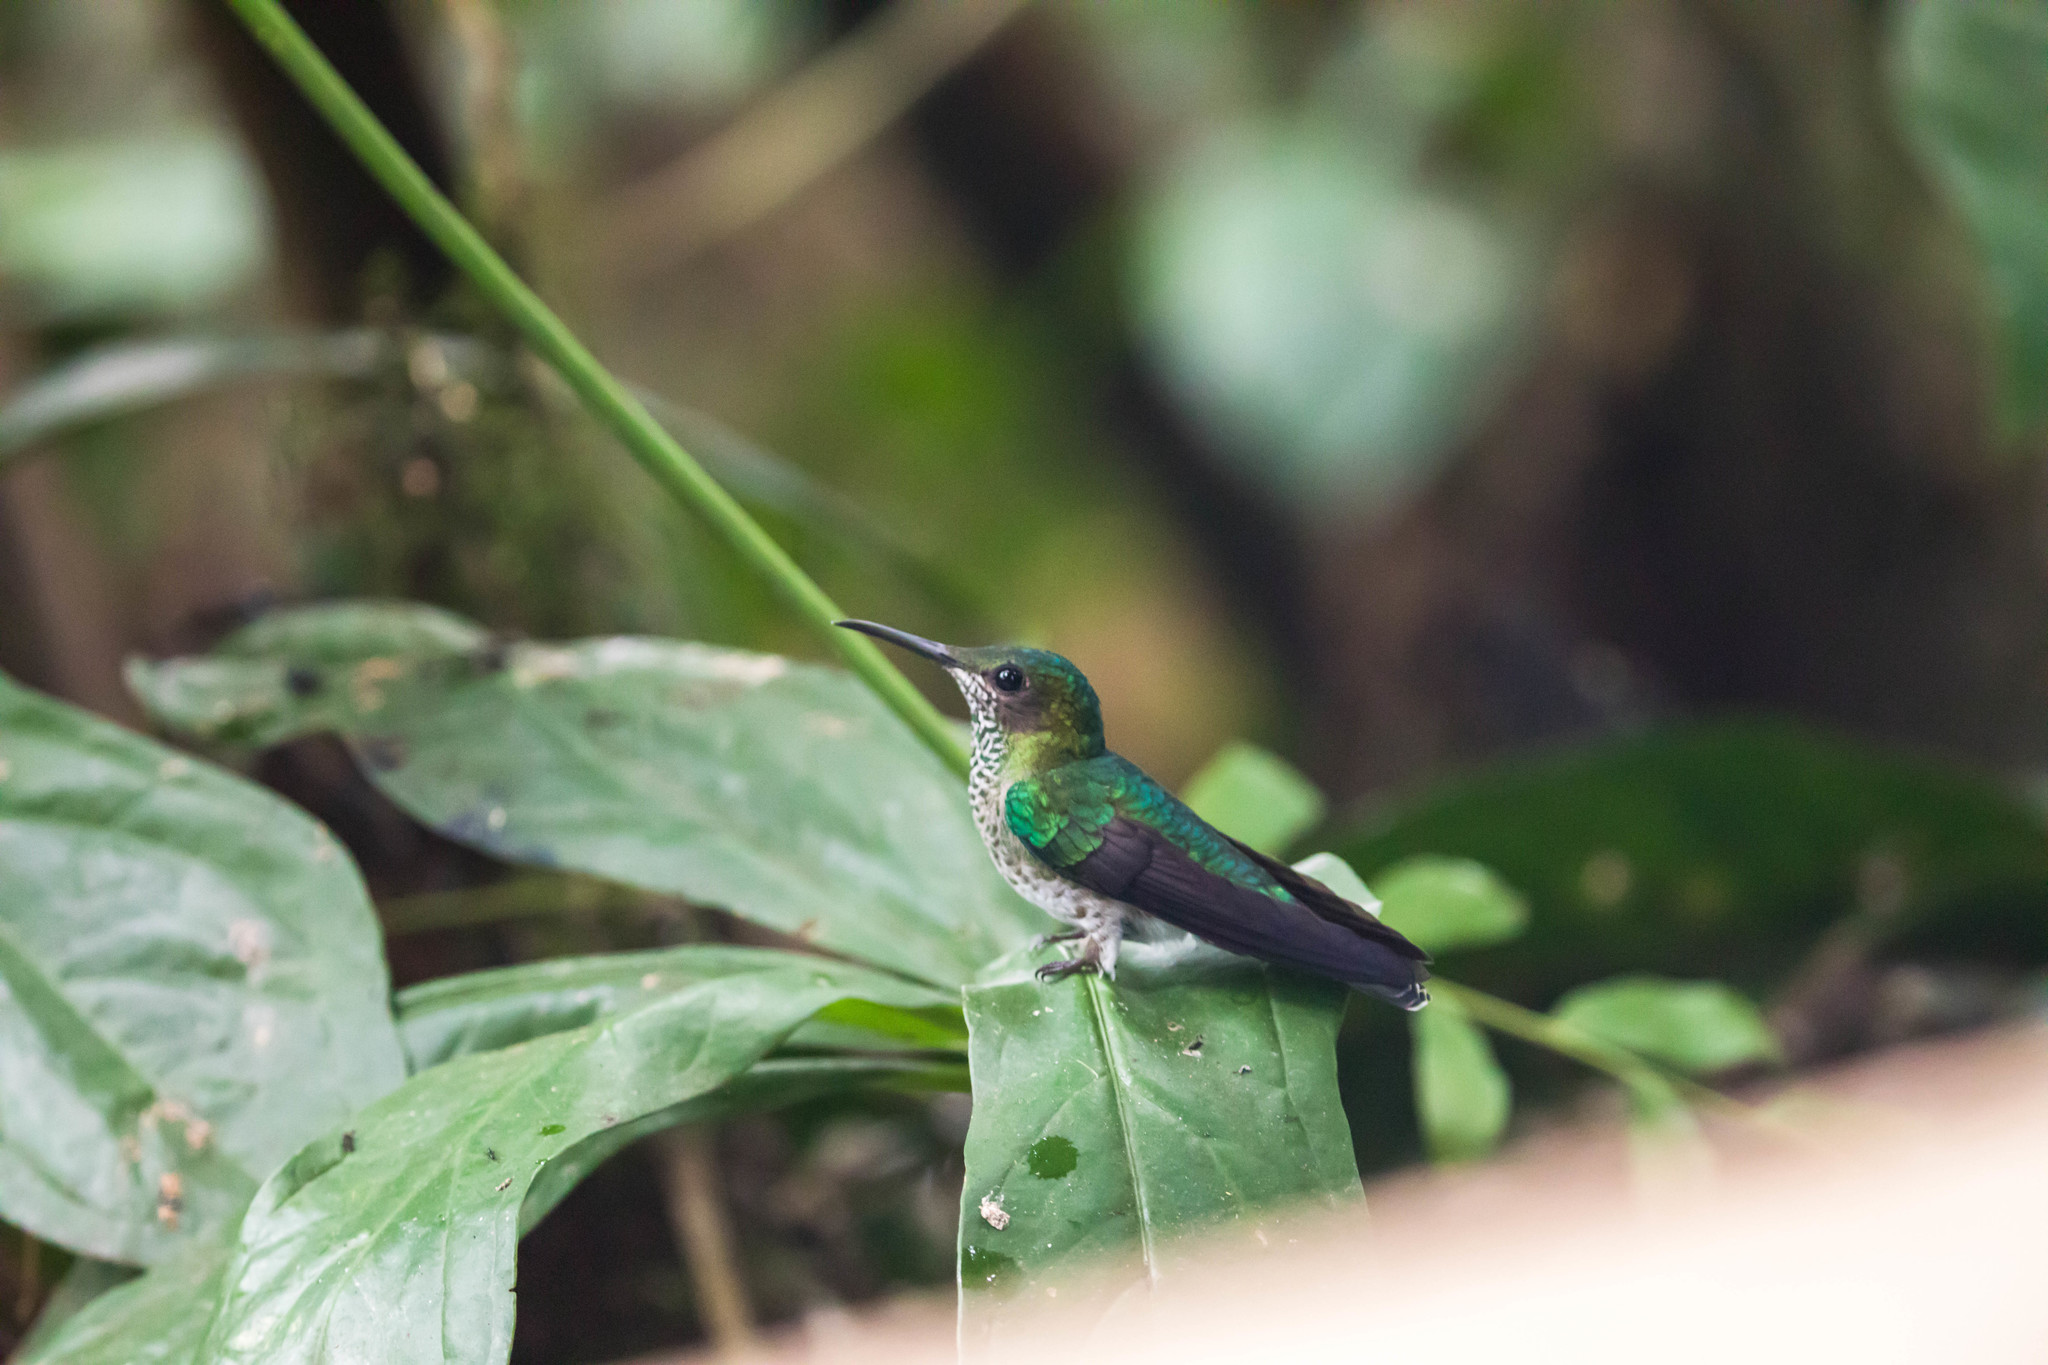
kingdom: Animalia
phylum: Chordata
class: Aves
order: Apodiformes
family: Trochilidae
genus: Florisuga
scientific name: Florisuga mellivora
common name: White-necked jacobin
